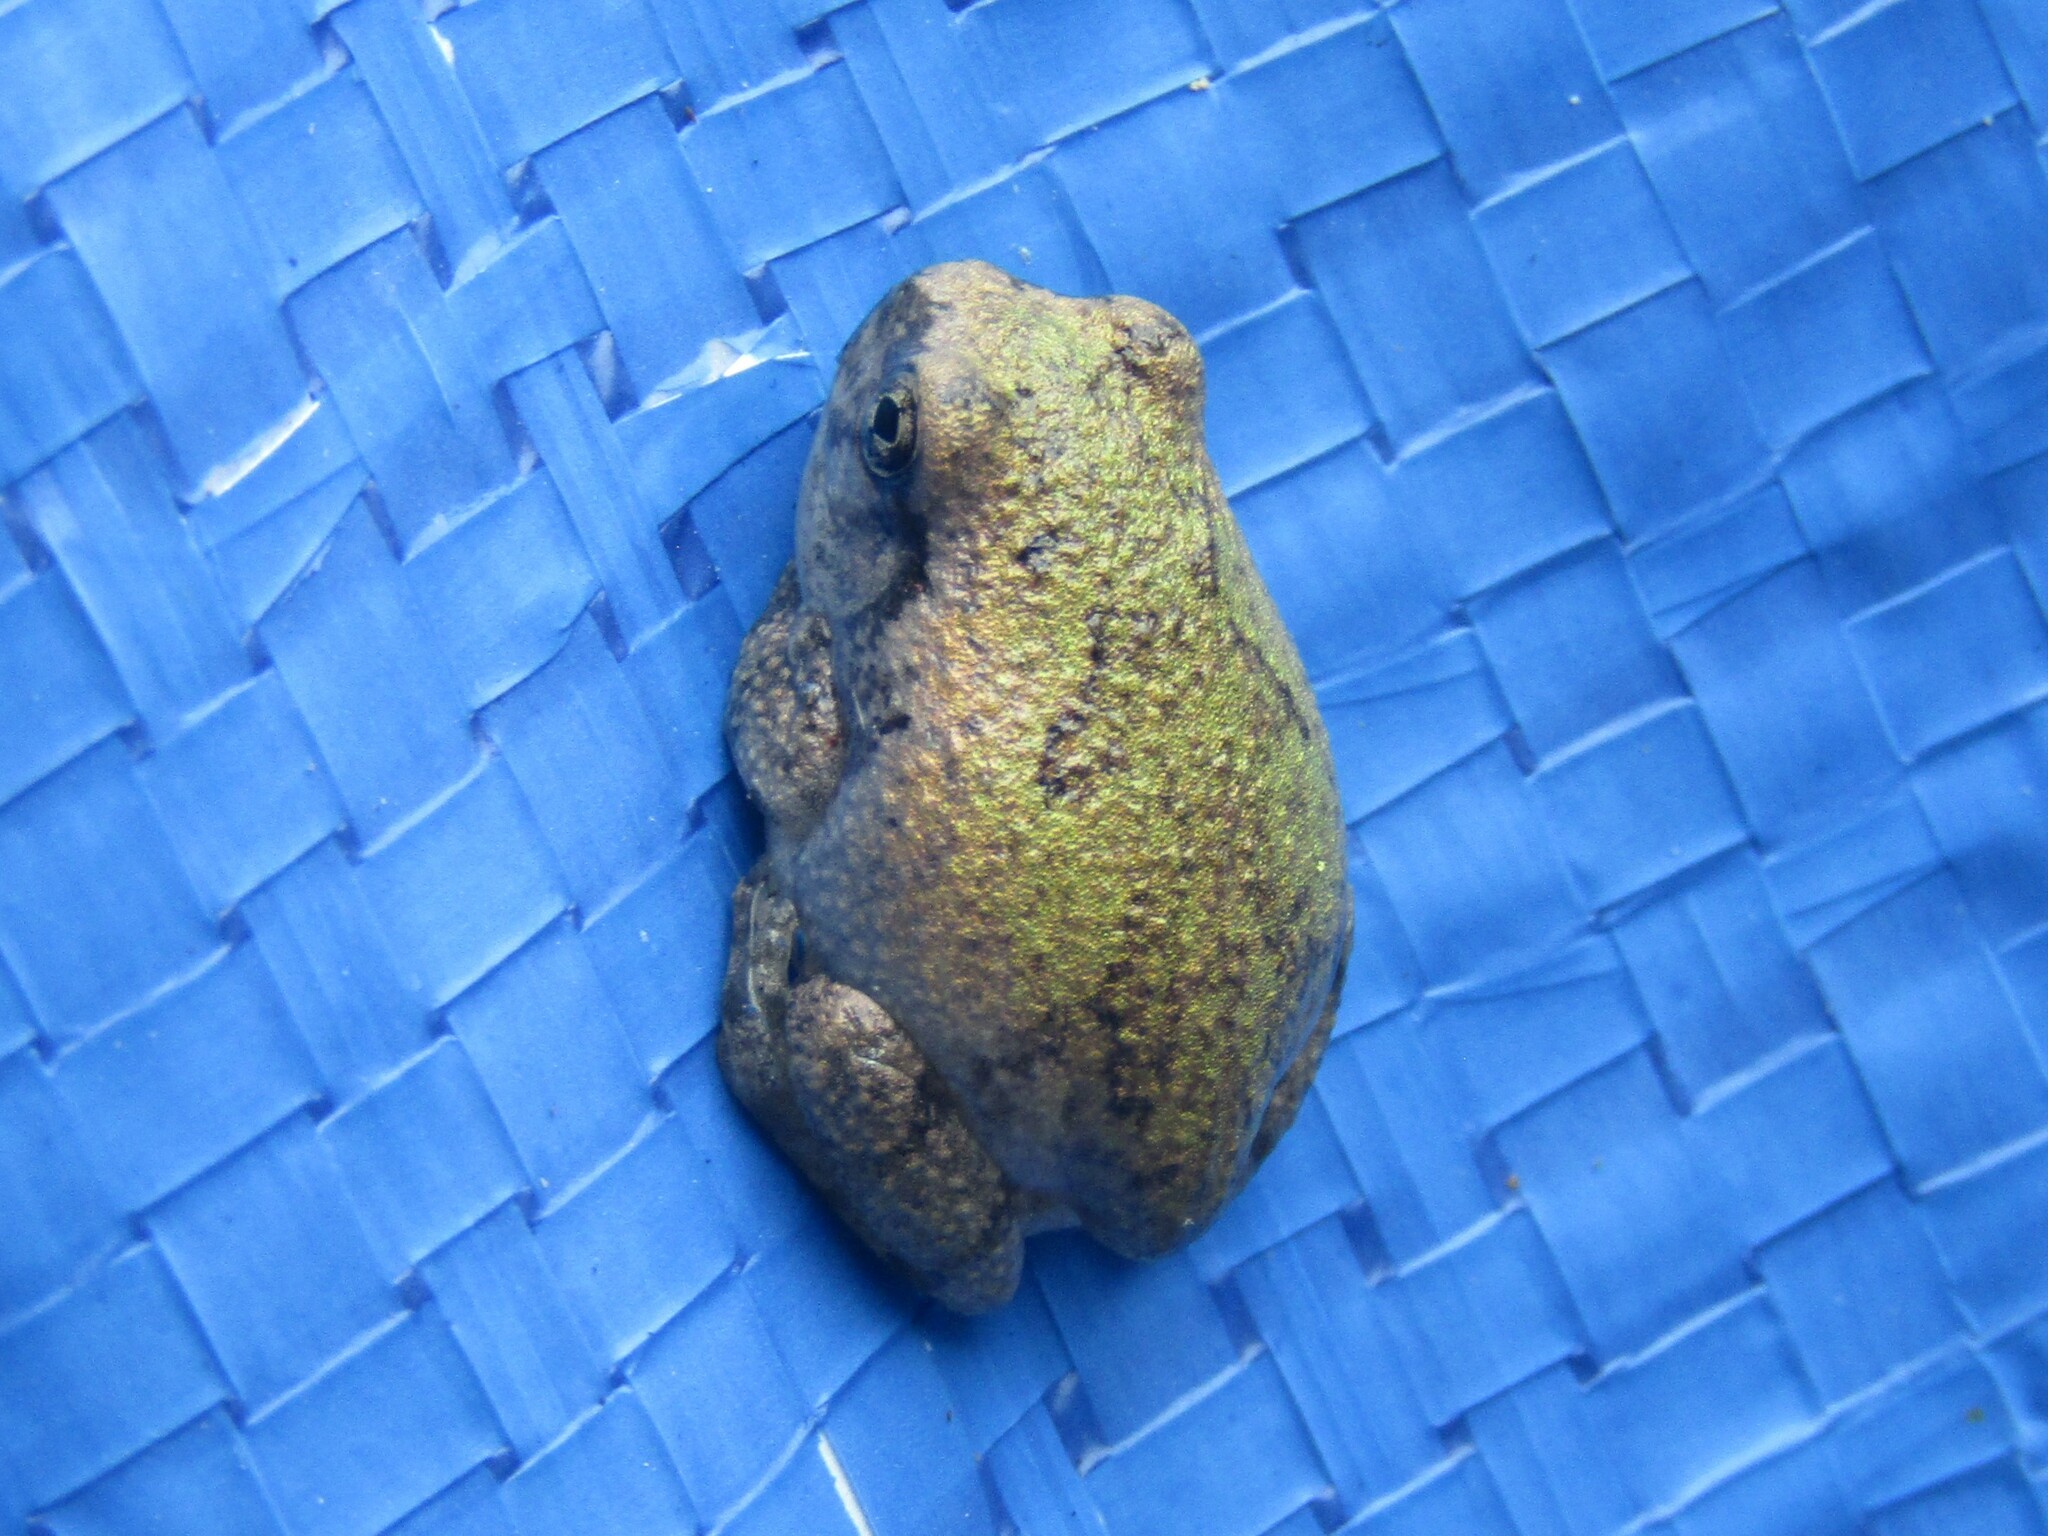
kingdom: Animalia
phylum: Chordata
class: Amphibia
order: Anura
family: Hylidae
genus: Dryophytes
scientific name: Dryophytes chrysoscelis
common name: Cope's gray treefrog
